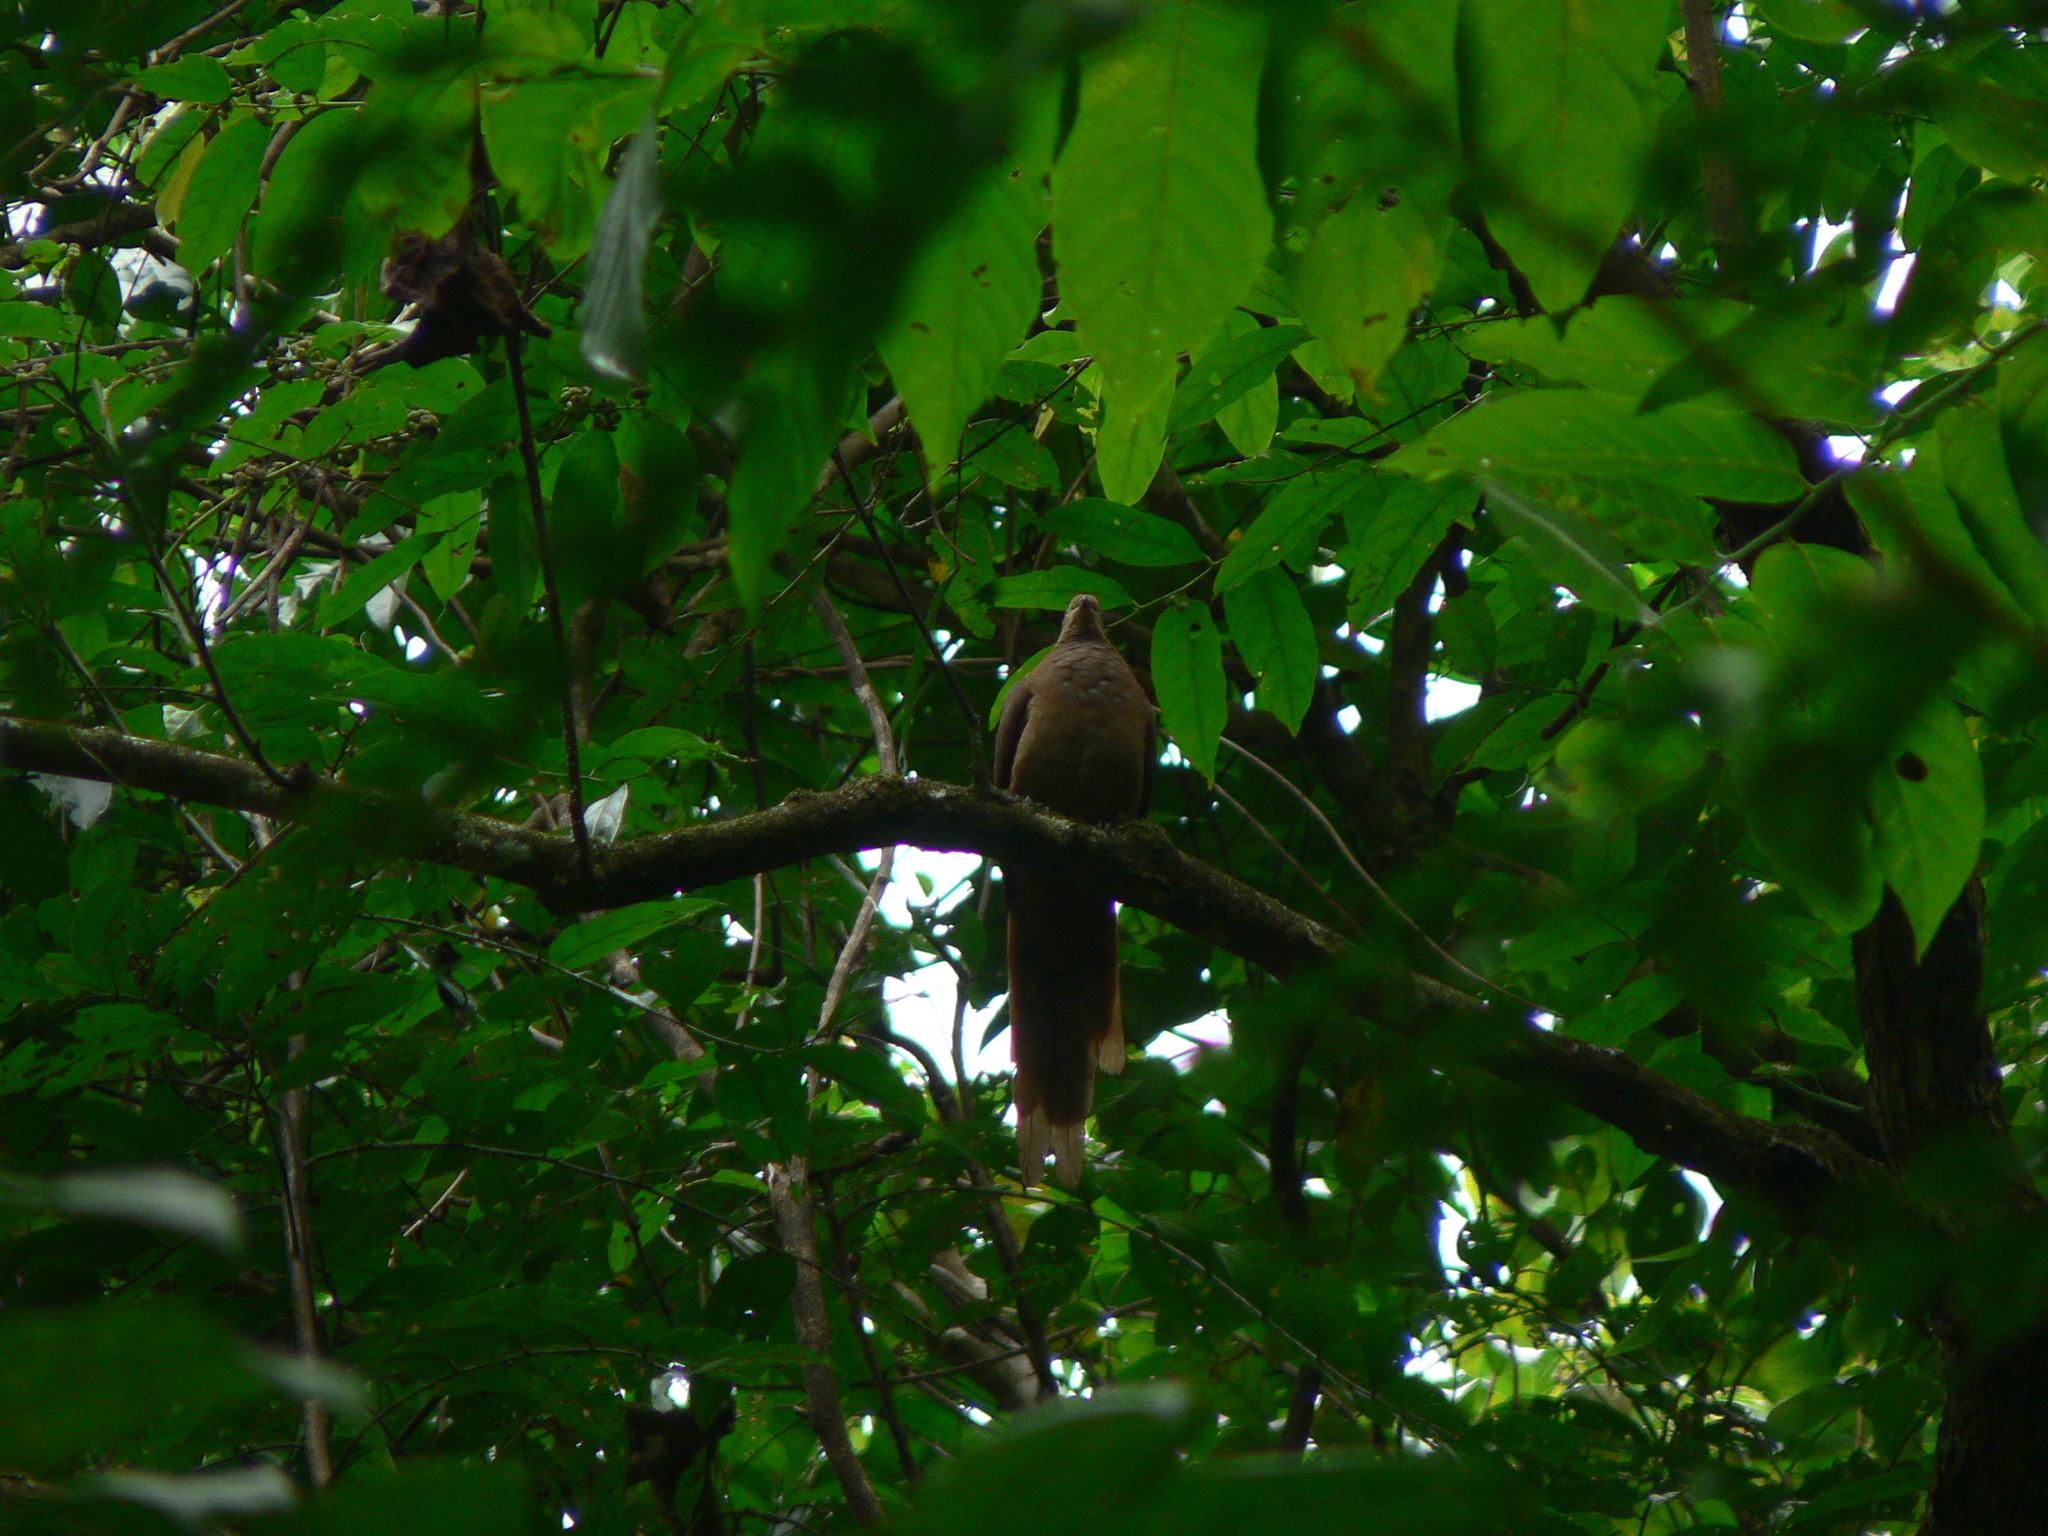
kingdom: Animalia
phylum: Chordata
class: Aves
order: Columbiformes
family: Columbidae
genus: Macropygia
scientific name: Macropygia phasianella
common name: Brown cuckoo-dove
